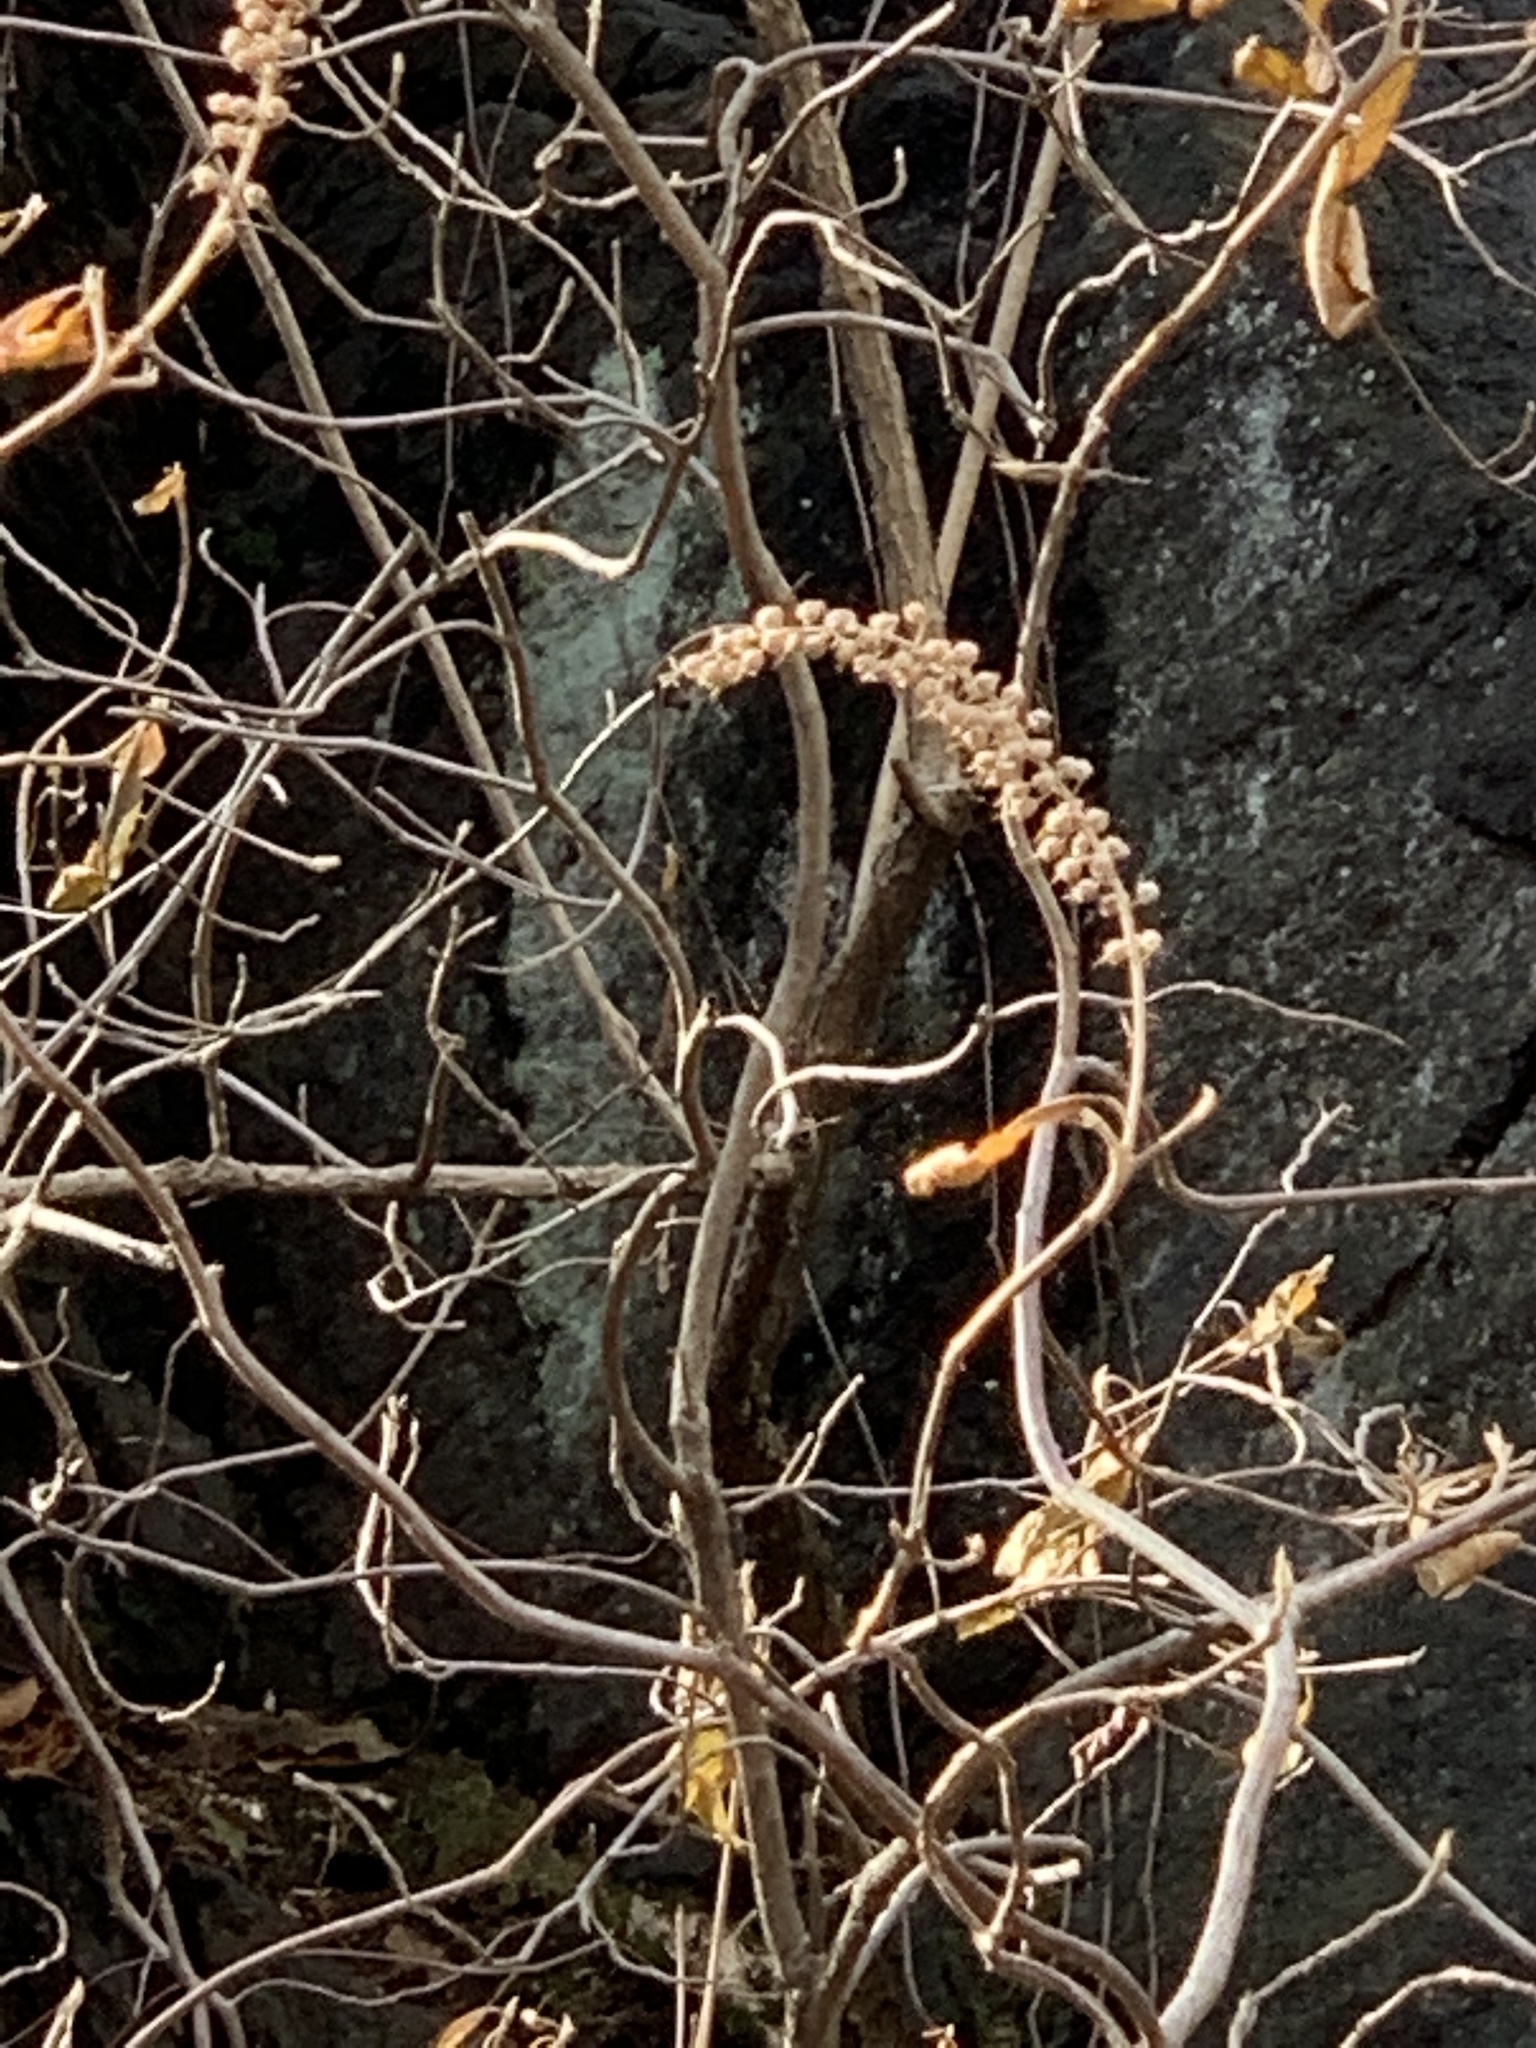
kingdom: Plantae
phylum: Tracheophyta
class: Magnoliopsida
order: Ericales
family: Clethraceae
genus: Clethra
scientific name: Clethra alnifolia
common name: Sweet pepperbush
